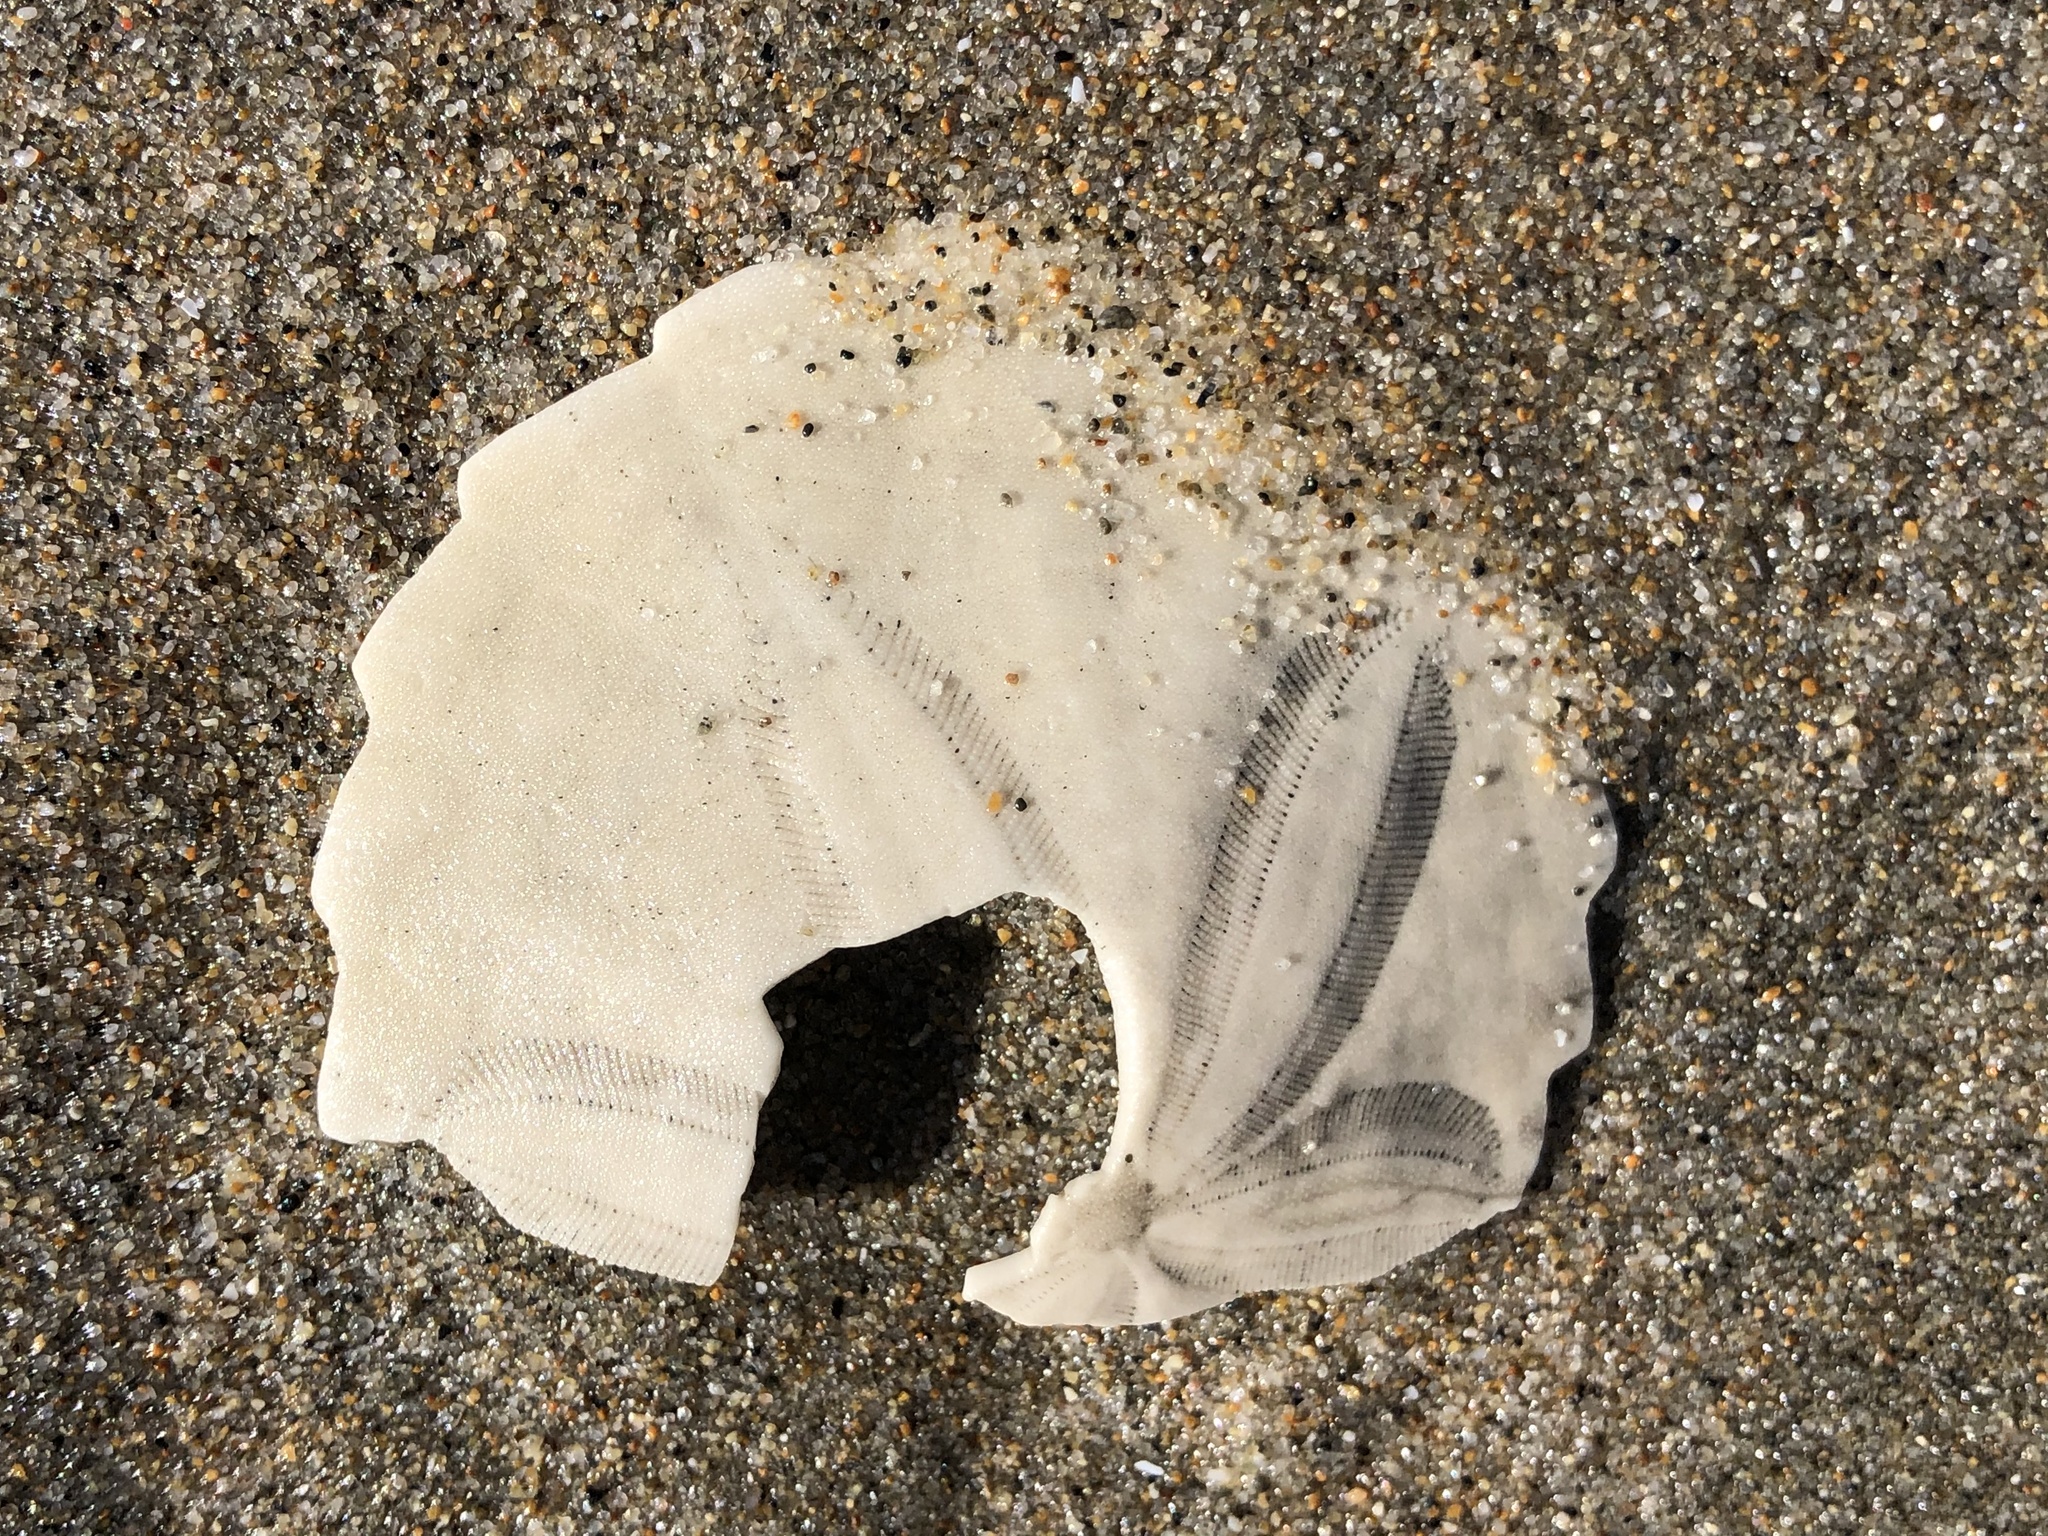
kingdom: Animalia
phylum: Echinodermata
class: Echinoidea
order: Echinolampadacea
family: Dendrasteridae
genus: Dendraster
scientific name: Dendraster excentricus
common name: Eccentric sand dollar sea urchin
